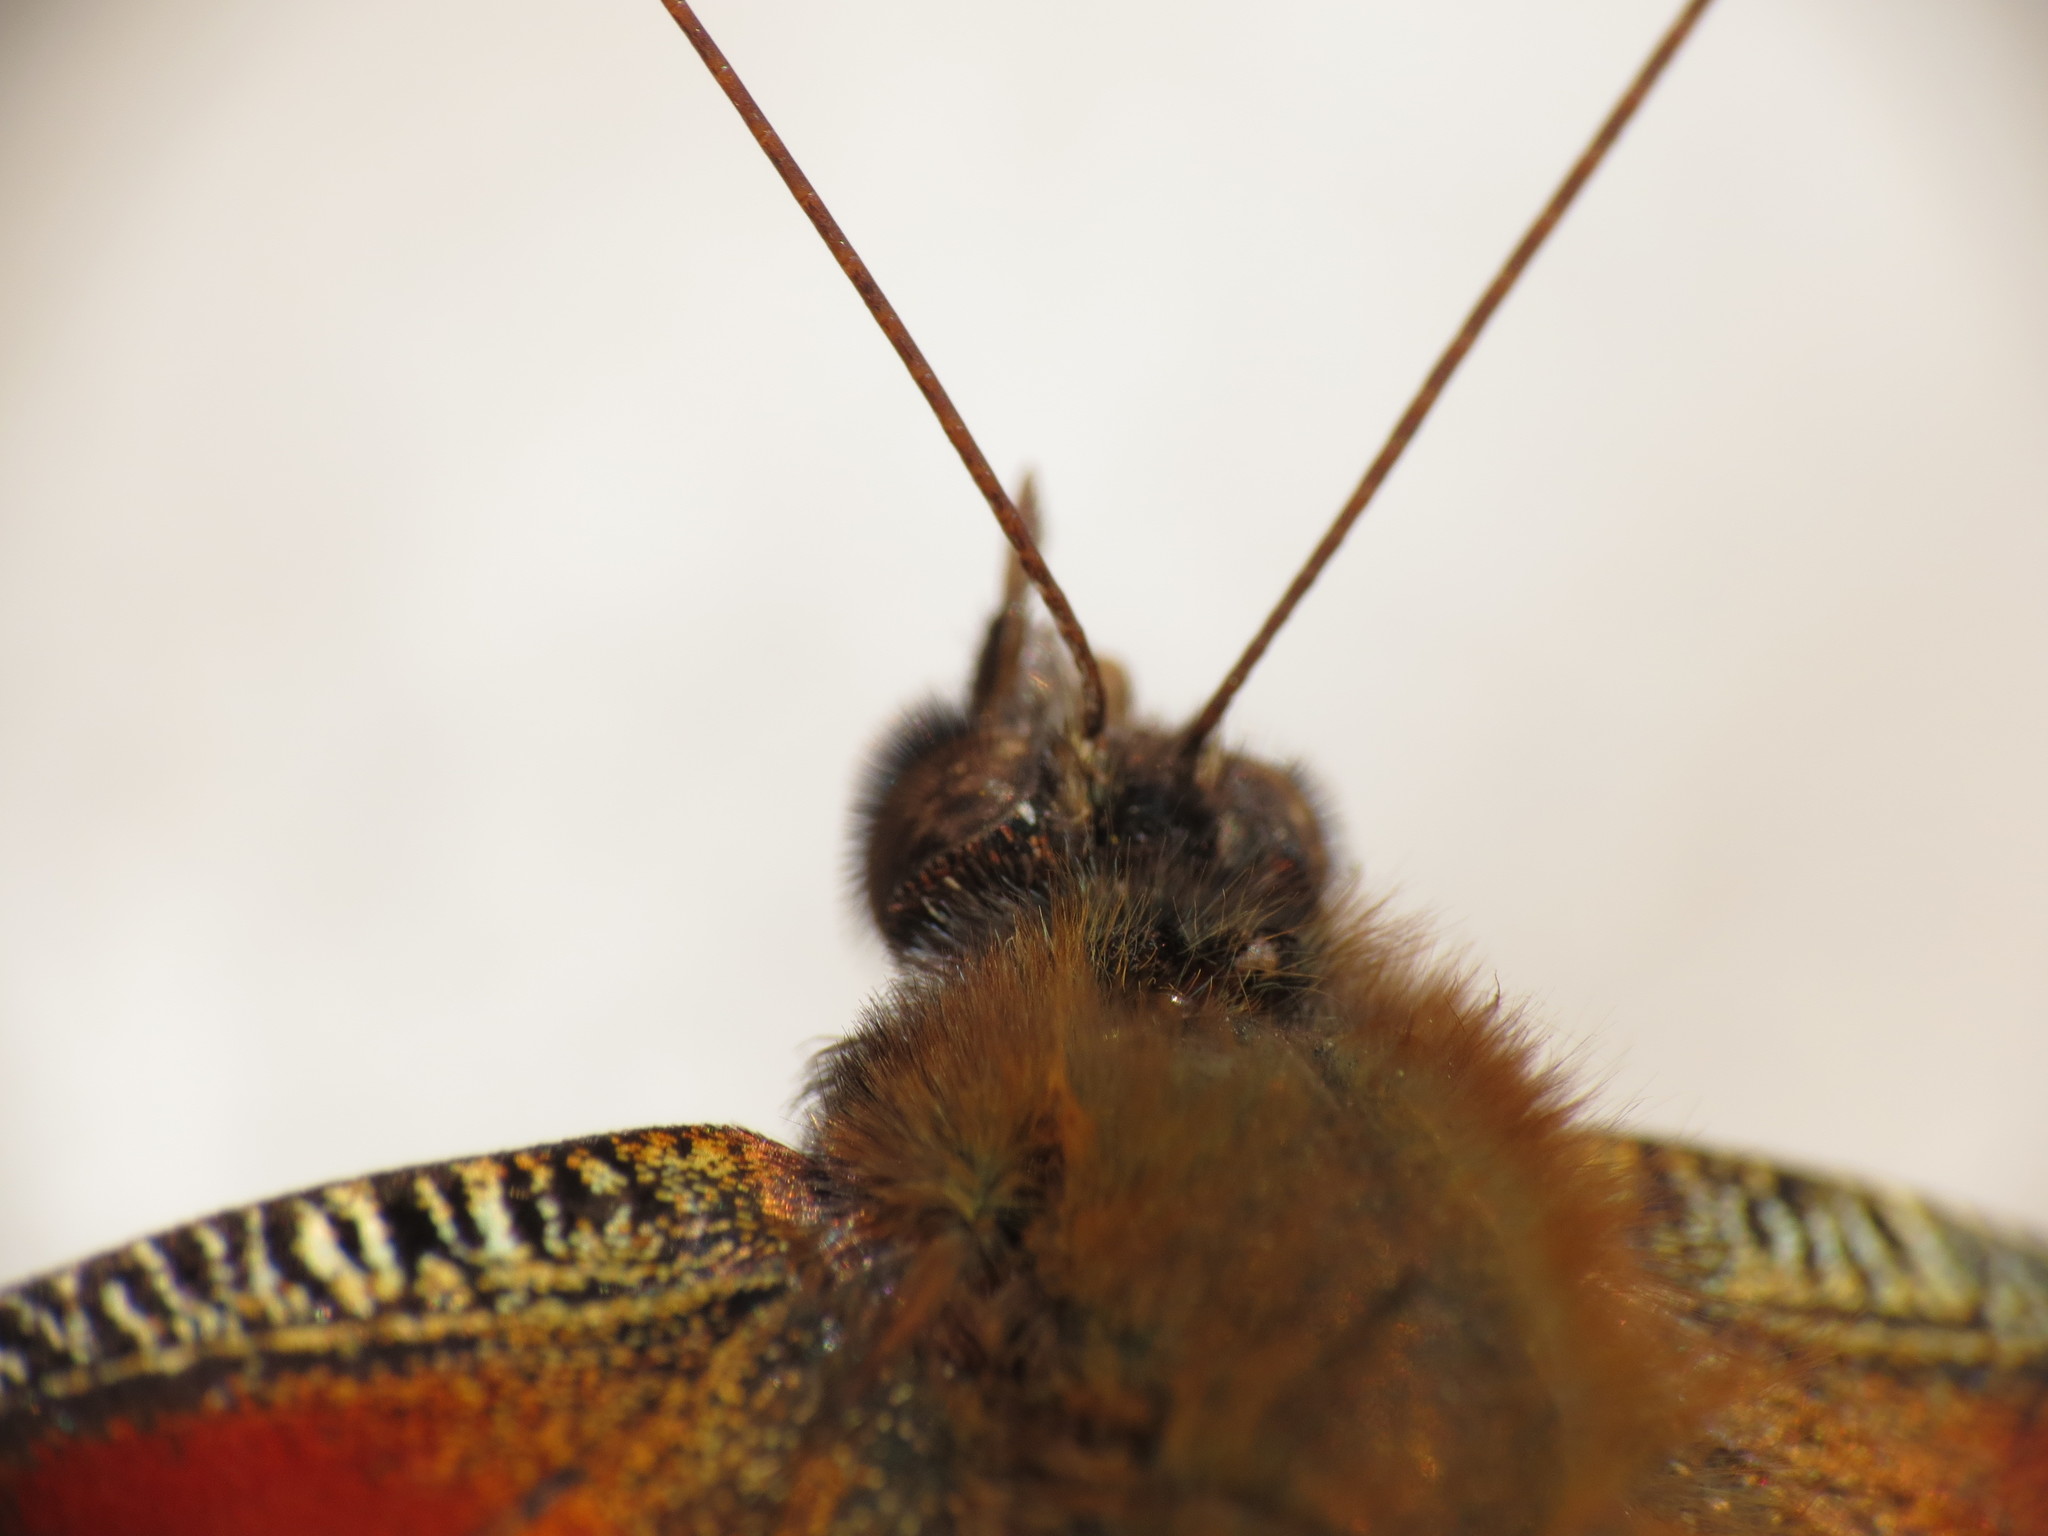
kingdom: Animalia
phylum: Arthropoda
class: Insecta
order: Lepidoptera
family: Nymphalidae
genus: Aglais
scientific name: Aglais io
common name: Peacock
